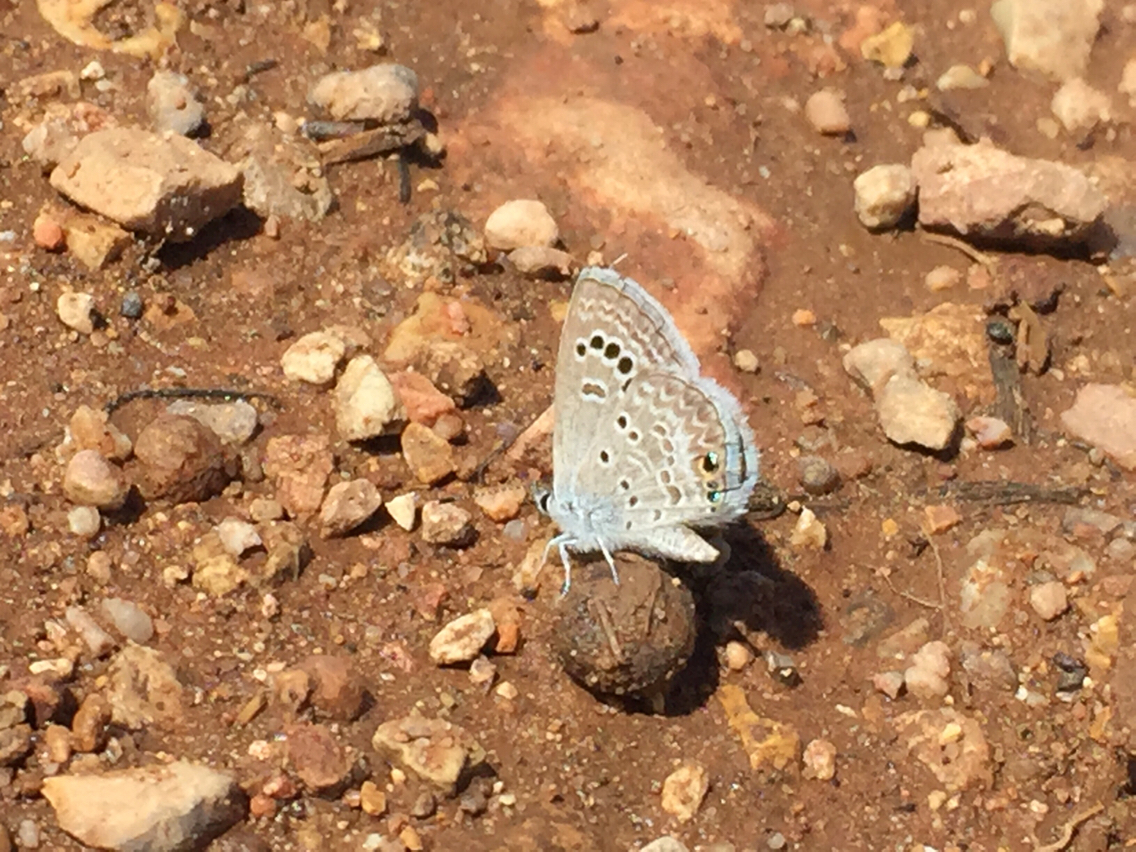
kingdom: Animalia
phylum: Arthropoda
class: Insecta
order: Lepidoptera
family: Lycaenidae
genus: Echinargus
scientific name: Echinargus isola
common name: Reakirt's blue
